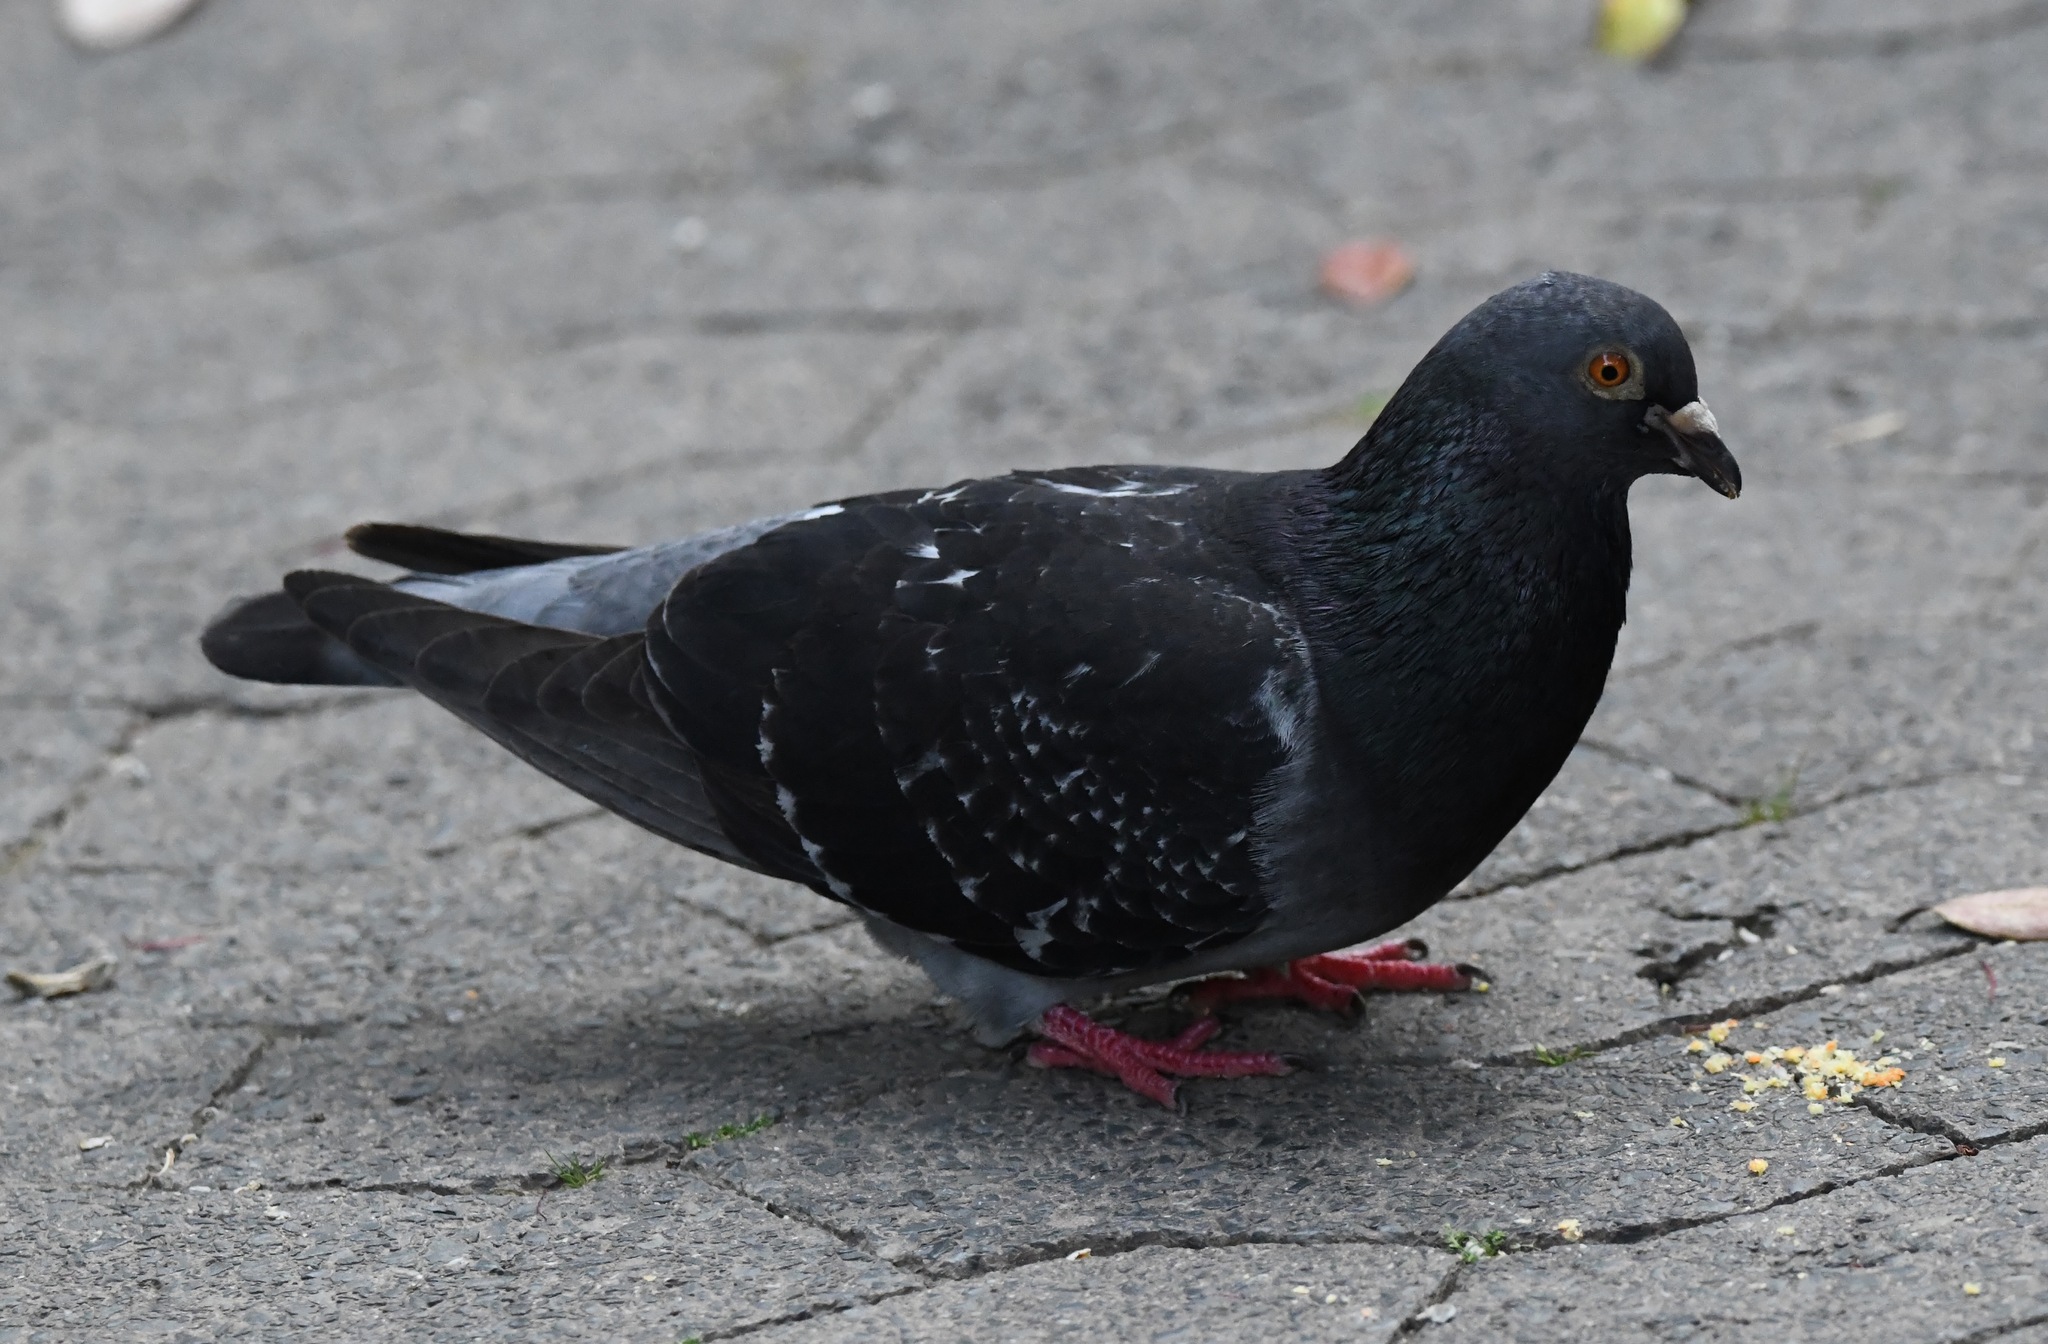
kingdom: Animalia
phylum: Chordata
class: Aves
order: Columbiformes
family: Columbidae
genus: Columba
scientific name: Columba livia
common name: Rock pigeon
